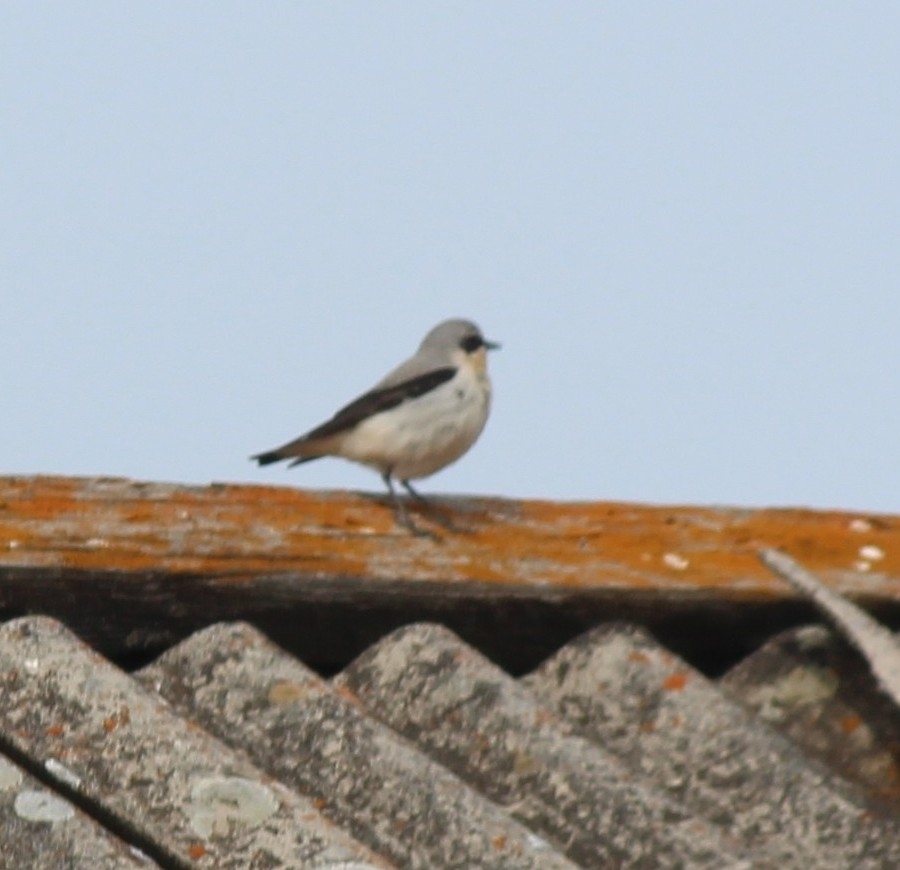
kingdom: Animalia
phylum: Chordata
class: Aves
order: Passeriformes
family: Muscicapidae
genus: Oenanthe
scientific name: Oenanthe oenanthe
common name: Northern wheatear
